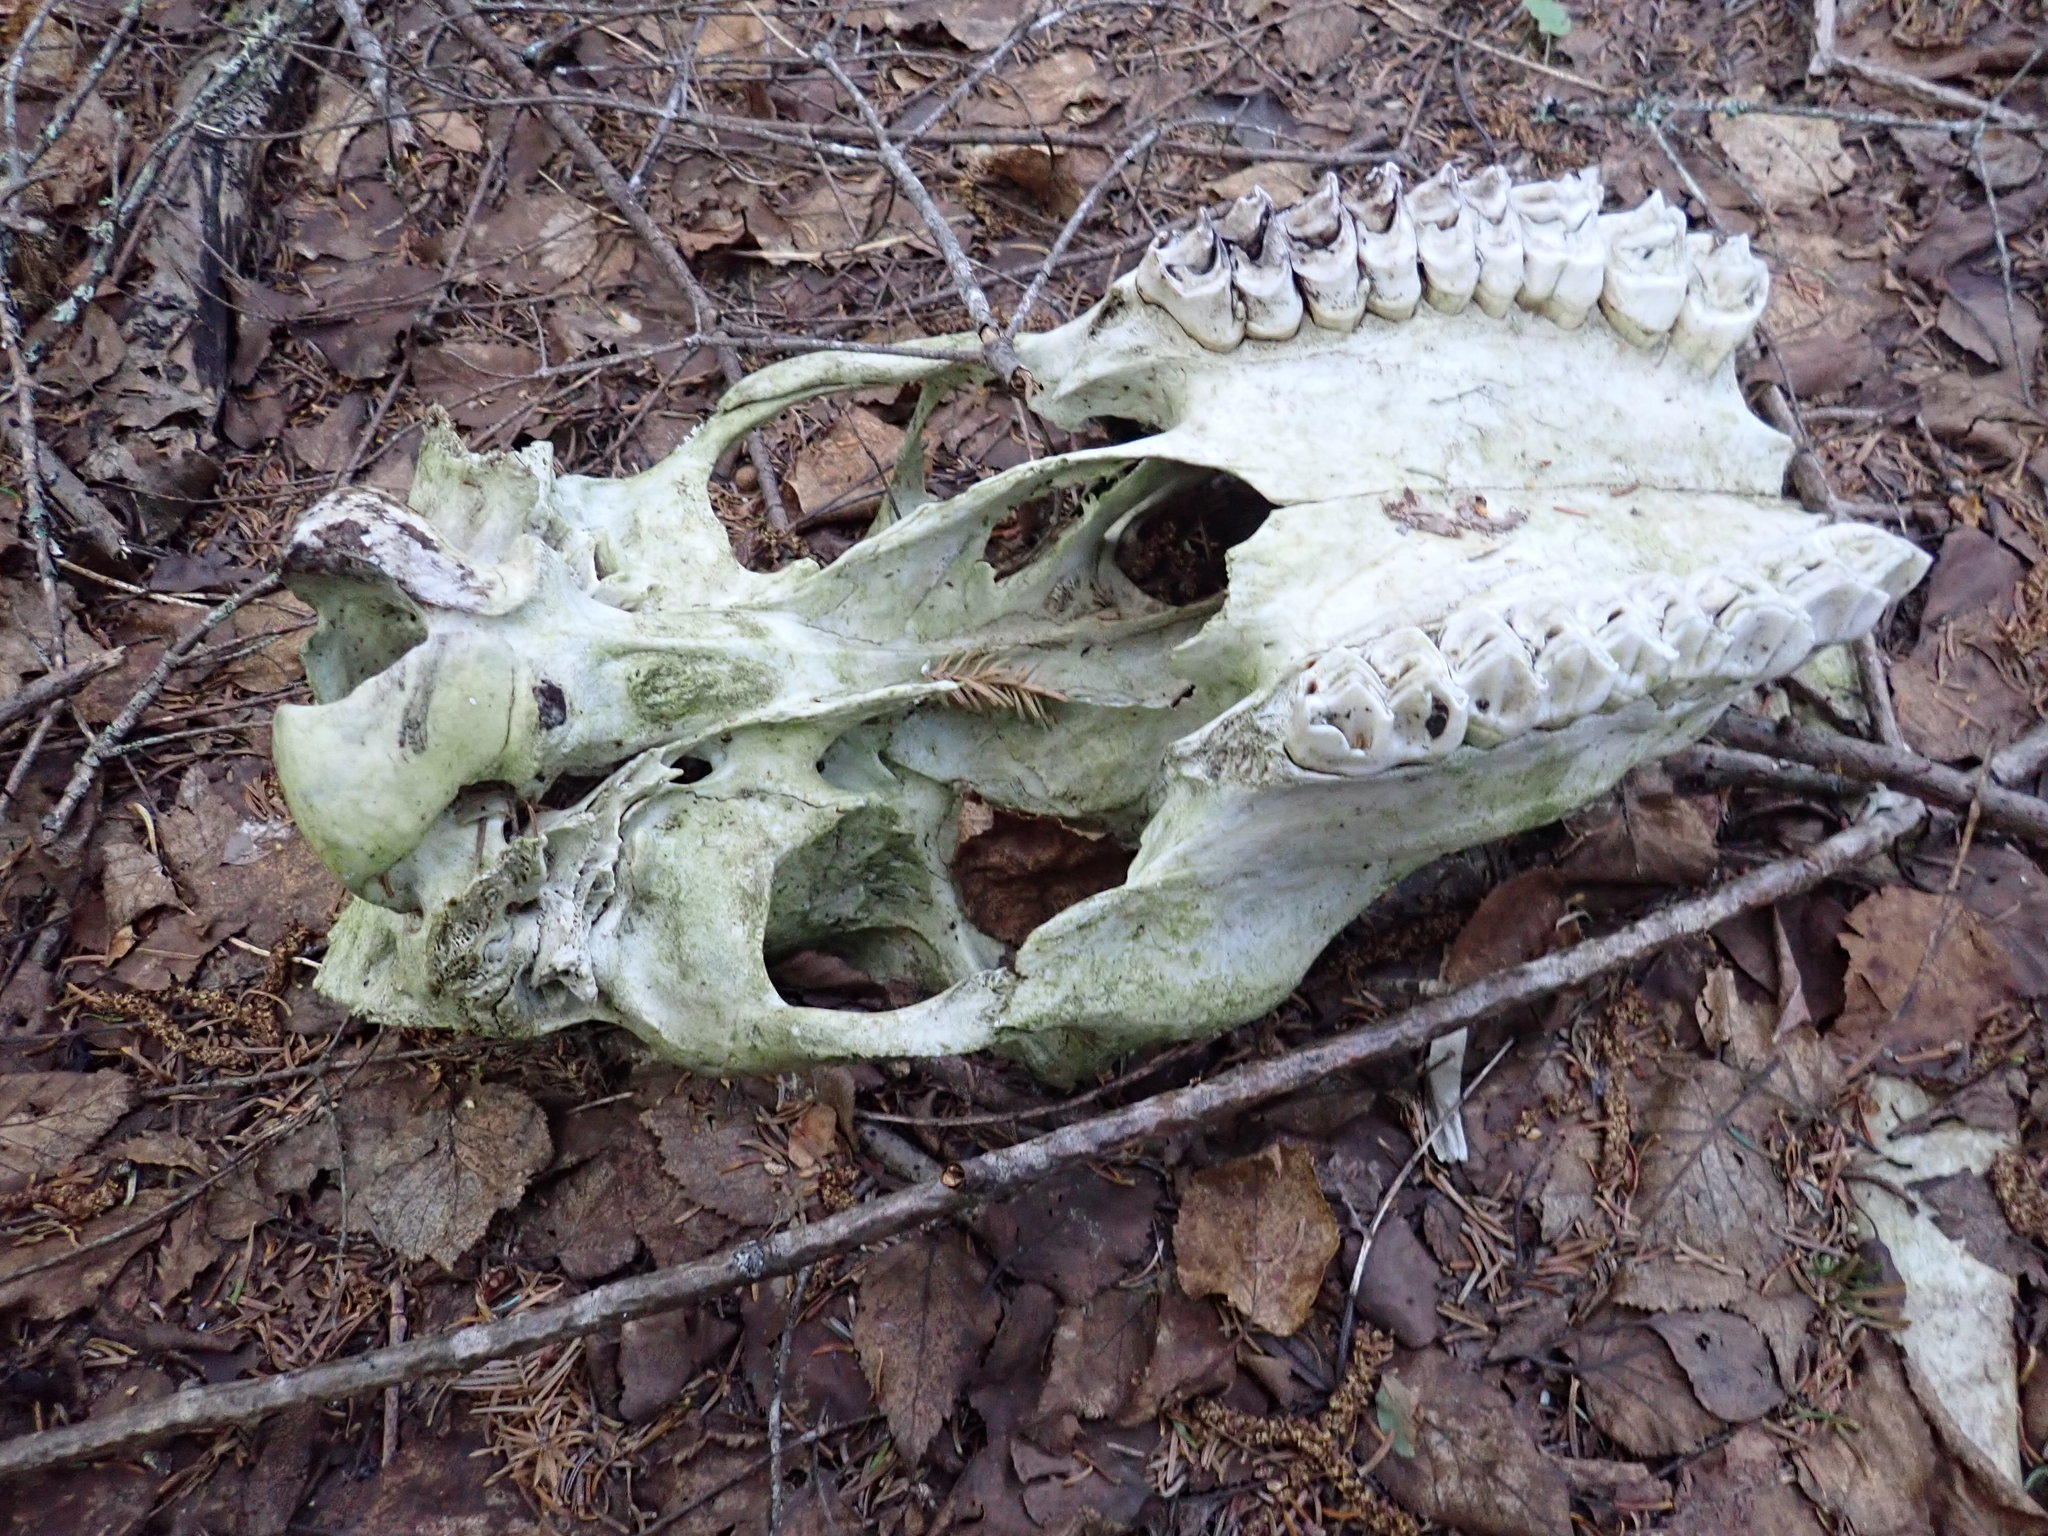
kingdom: Animalia
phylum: Chordata
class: Mammalia
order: Artiodactyla
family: Cervidae
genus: Alces
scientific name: Alces alces
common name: Moose
